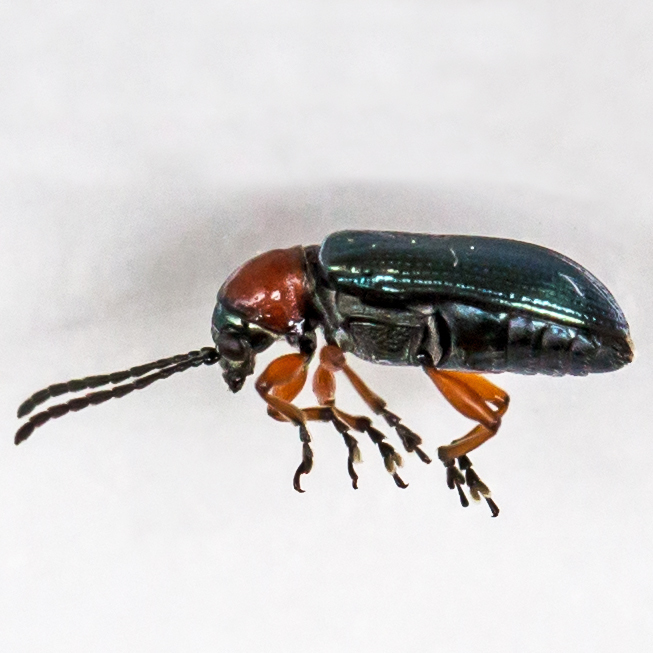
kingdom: Animalia
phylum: Arthropoda
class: Insecta
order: Coleoptera
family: Chrysomelidae
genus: Oulema
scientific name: Oulema melanopus
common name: Cereal leaf beetle
